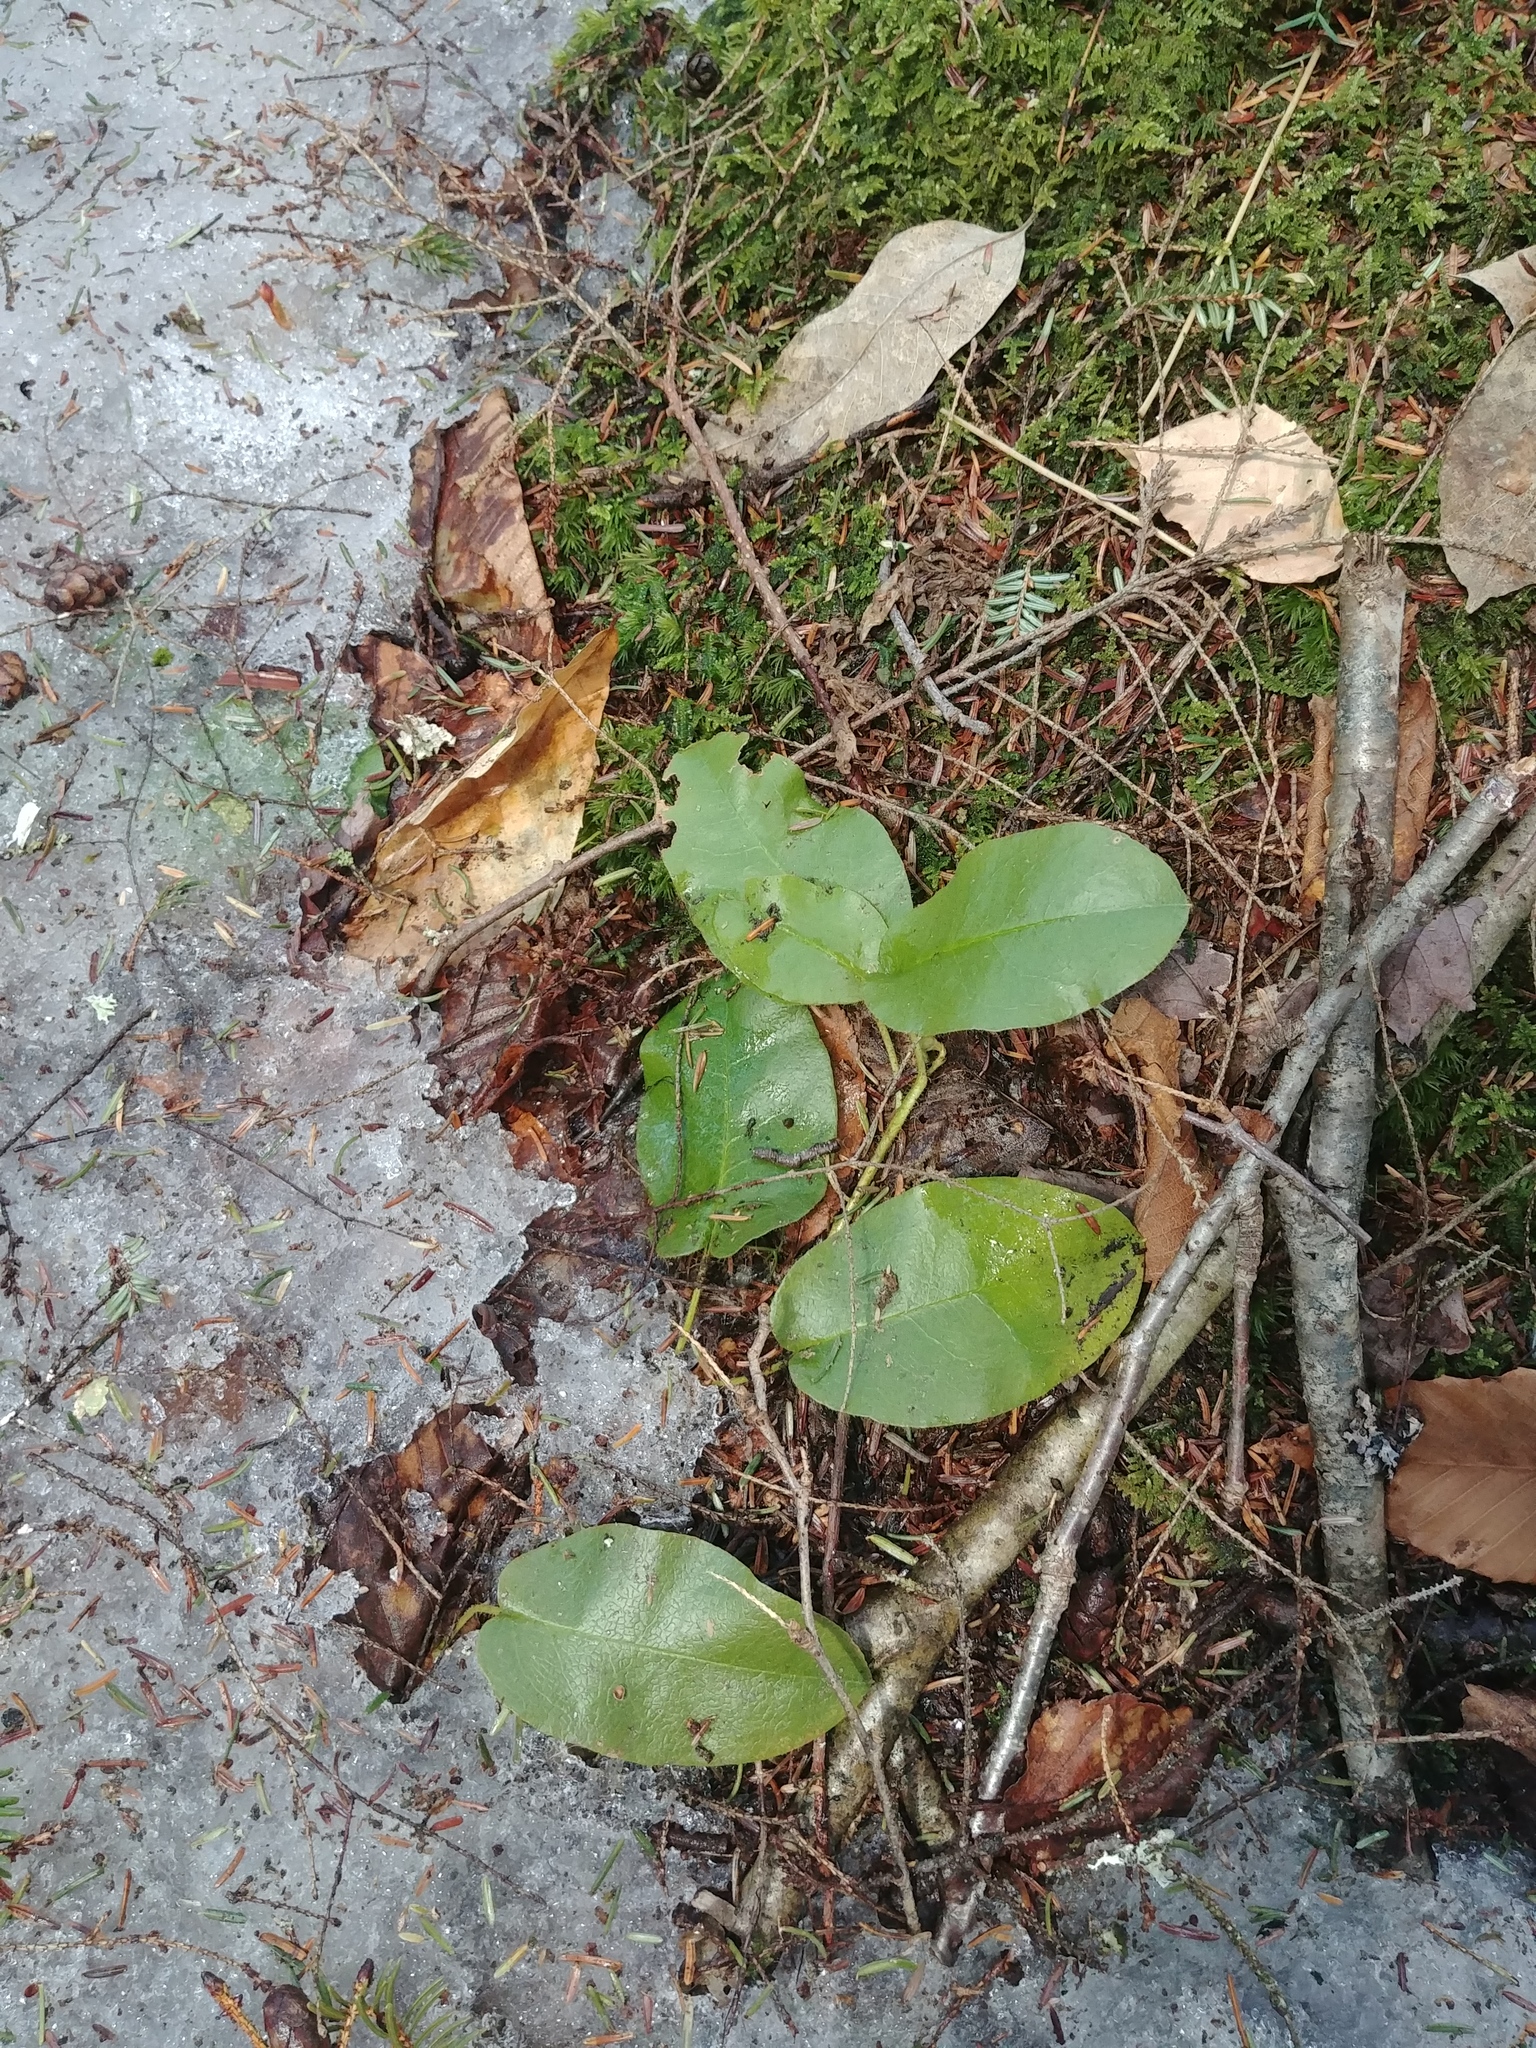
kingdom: Plantae
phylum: Tracheophyta
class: Magnoliopsida
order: Ericales
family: Ericaceae
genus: Epigaea
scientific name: Epigaea repens
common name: Gravelroot
